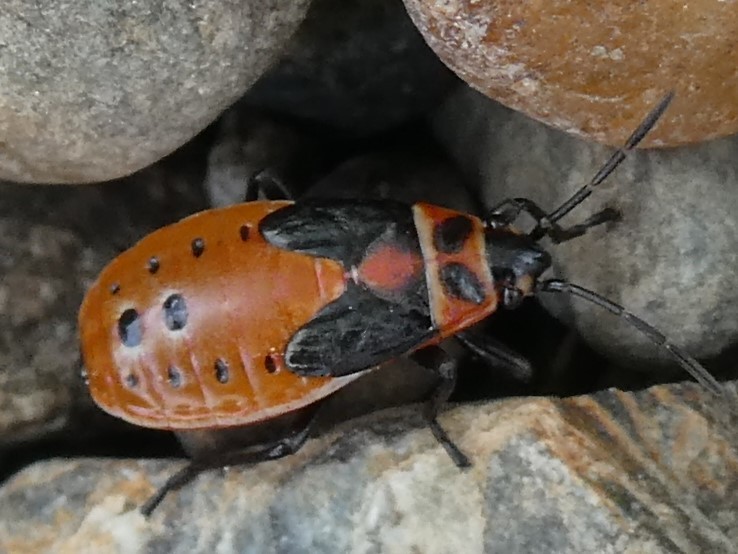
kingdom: Animalia
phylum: Arthropoda
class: Insecta
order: Hemiptera
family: Lygaeidae
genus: Lygaeus
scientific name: Lygaeus kalmii
